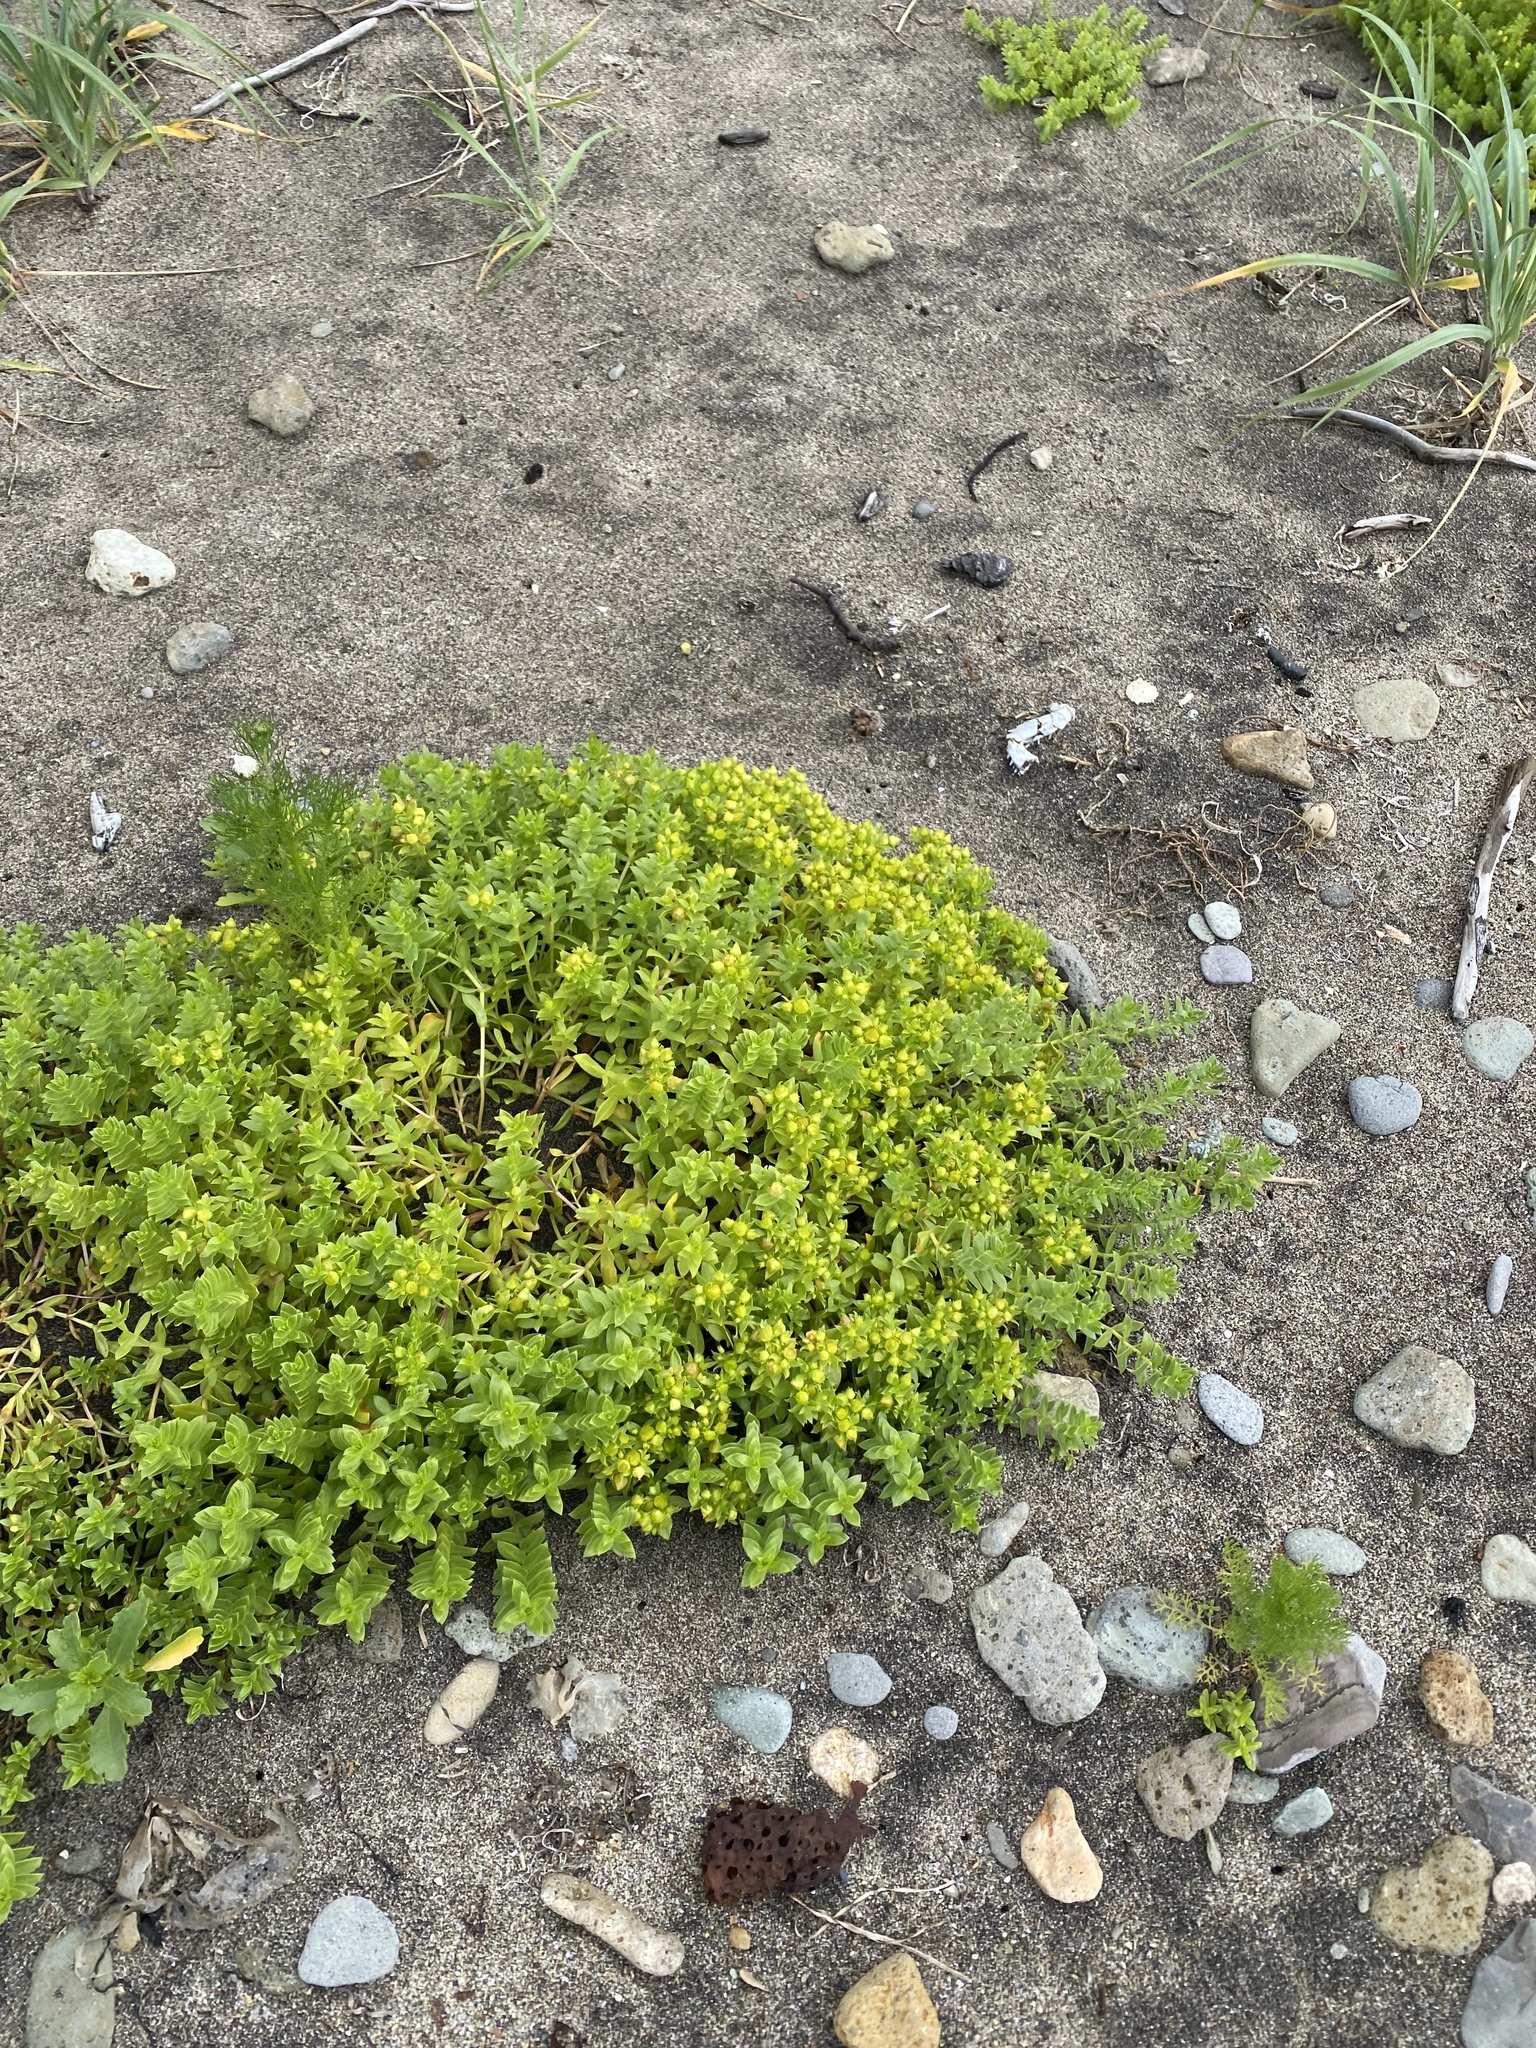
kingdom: Plantae
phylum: Tracheophyta
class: Magnoliopsida
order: Caryophyllales
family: Caryophyllaceae
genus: Honckenya
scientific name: Honckenya peploides
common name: Sea sandwort
